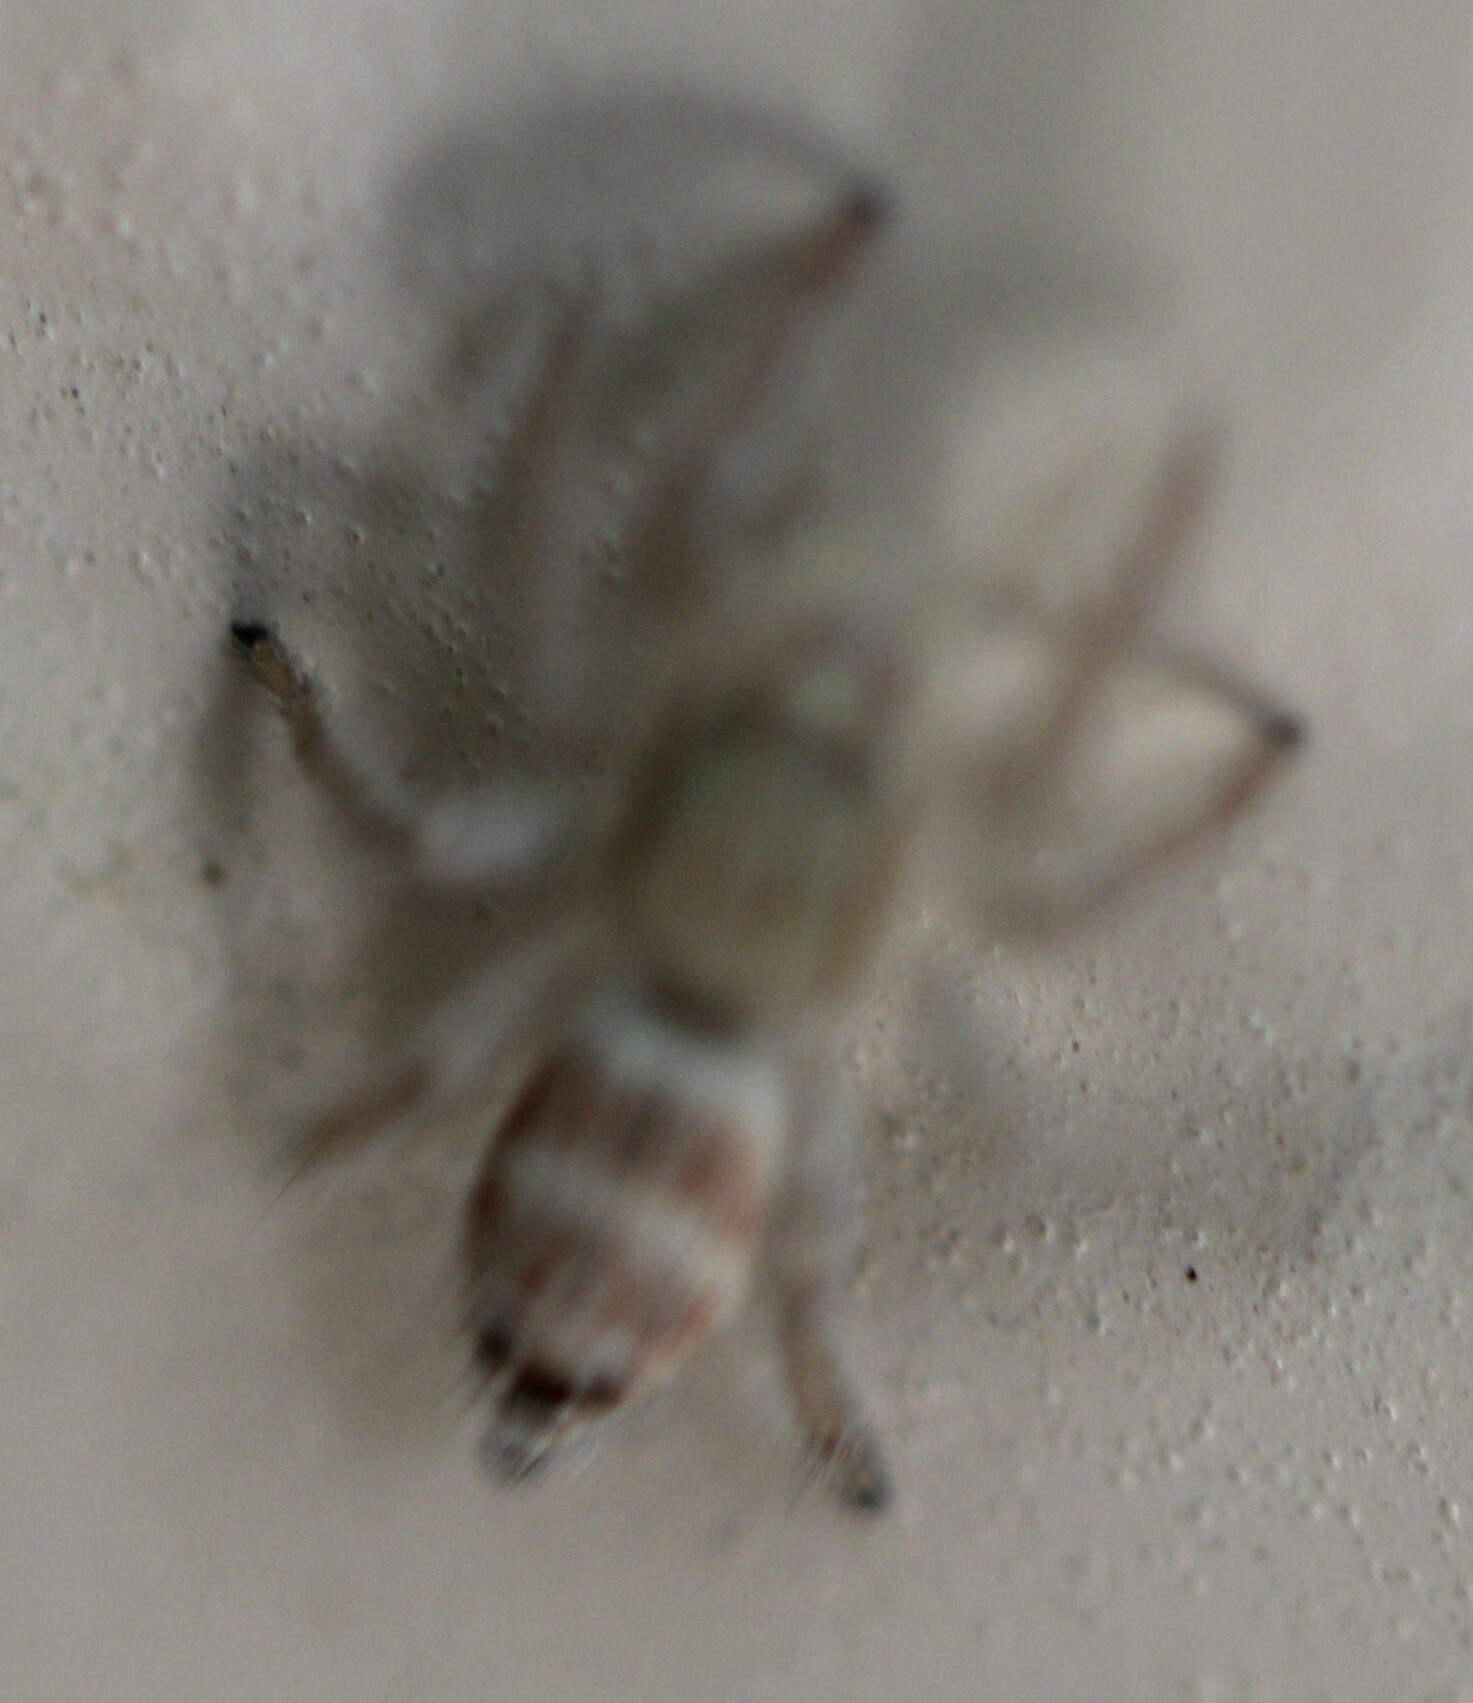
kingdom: Animalia
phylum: Arthropoda
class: Arachnida
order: Araneae
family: Salticidae
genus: Rudakius
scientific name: Rudakius cinctus
